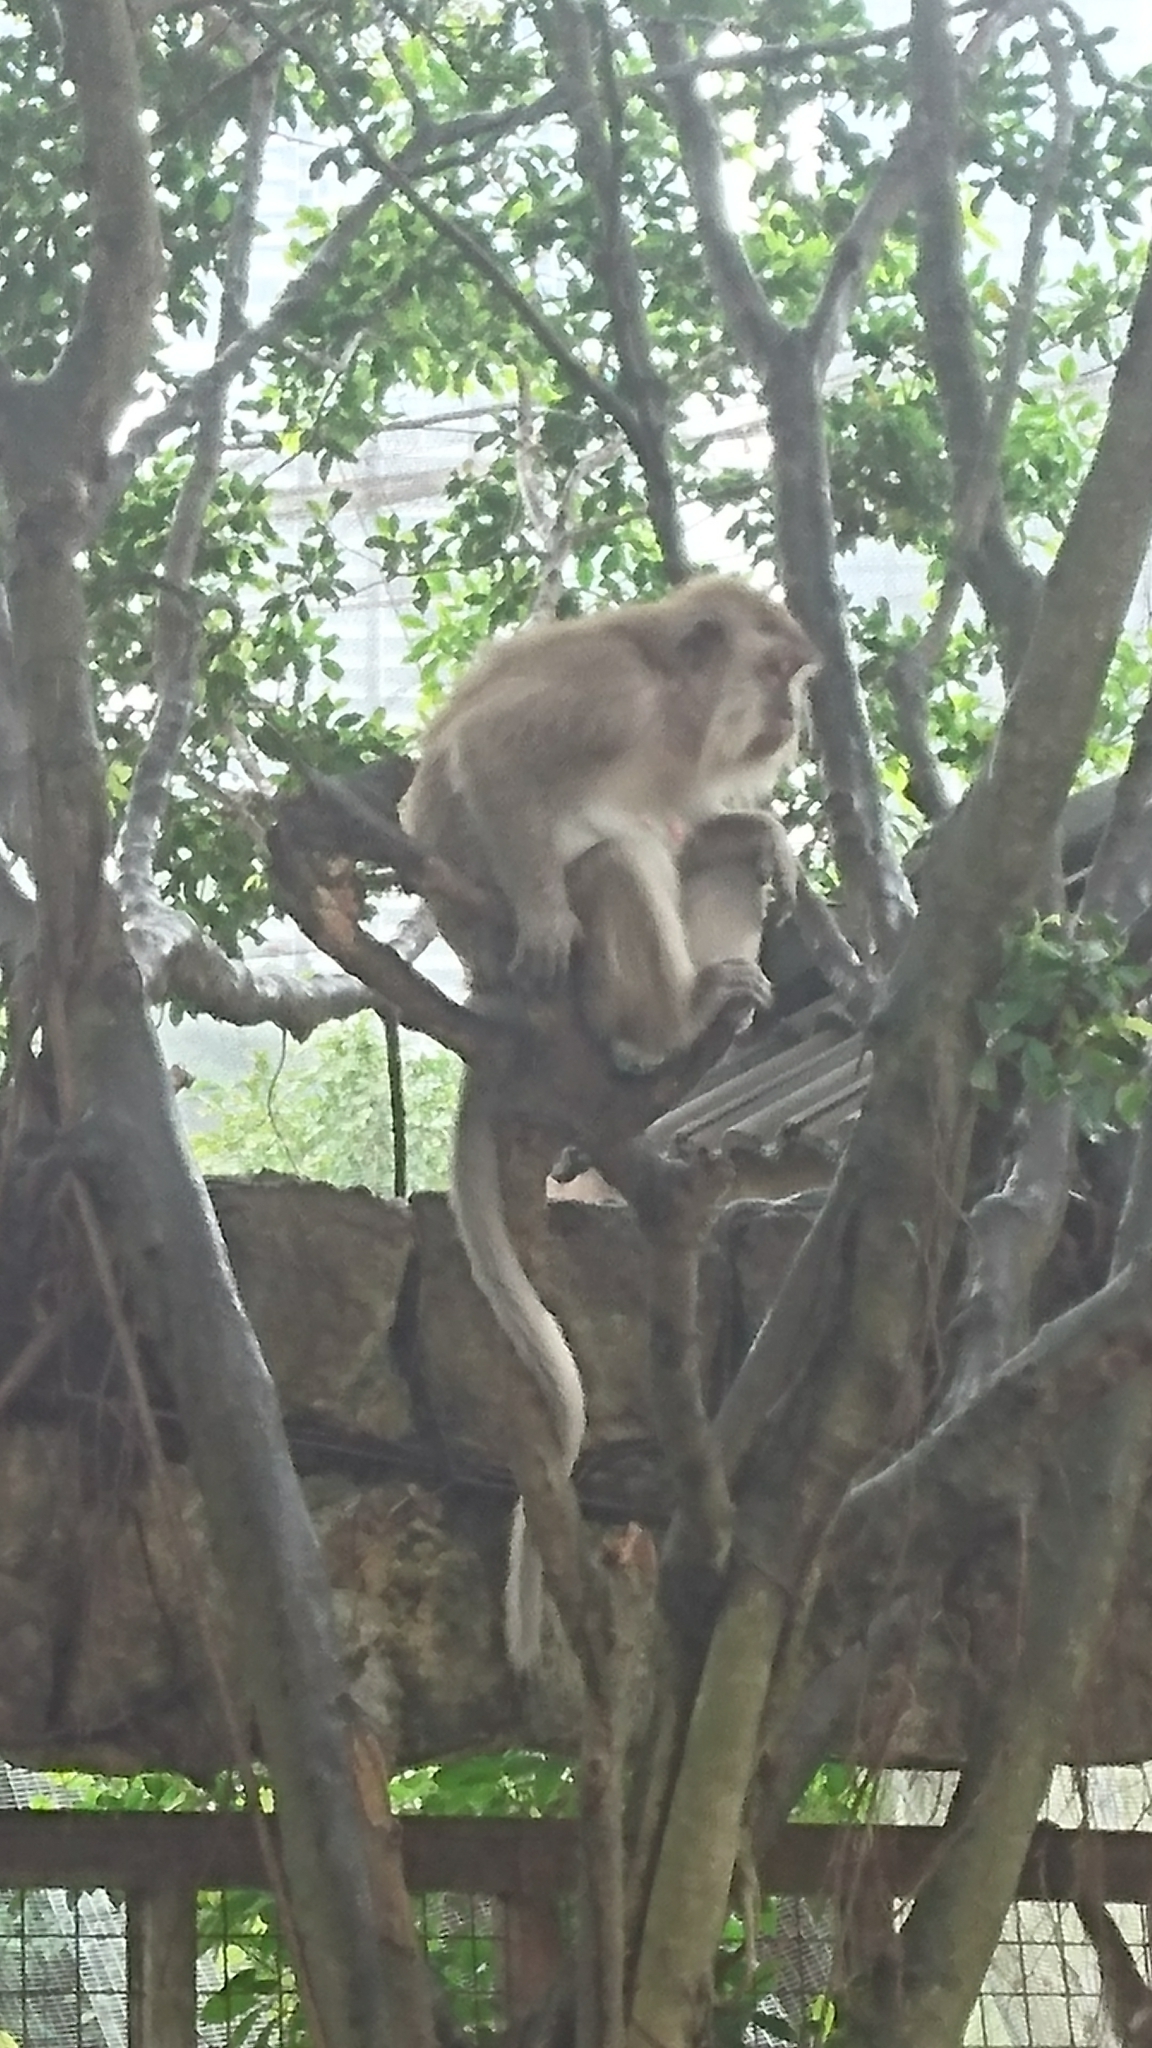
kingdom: Animalia
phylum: Chordata
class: Mammalia
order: Primates
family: Cercopithecidae
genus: Macaca
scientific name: Macaca fascicularis
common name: Crab-eating macaque
